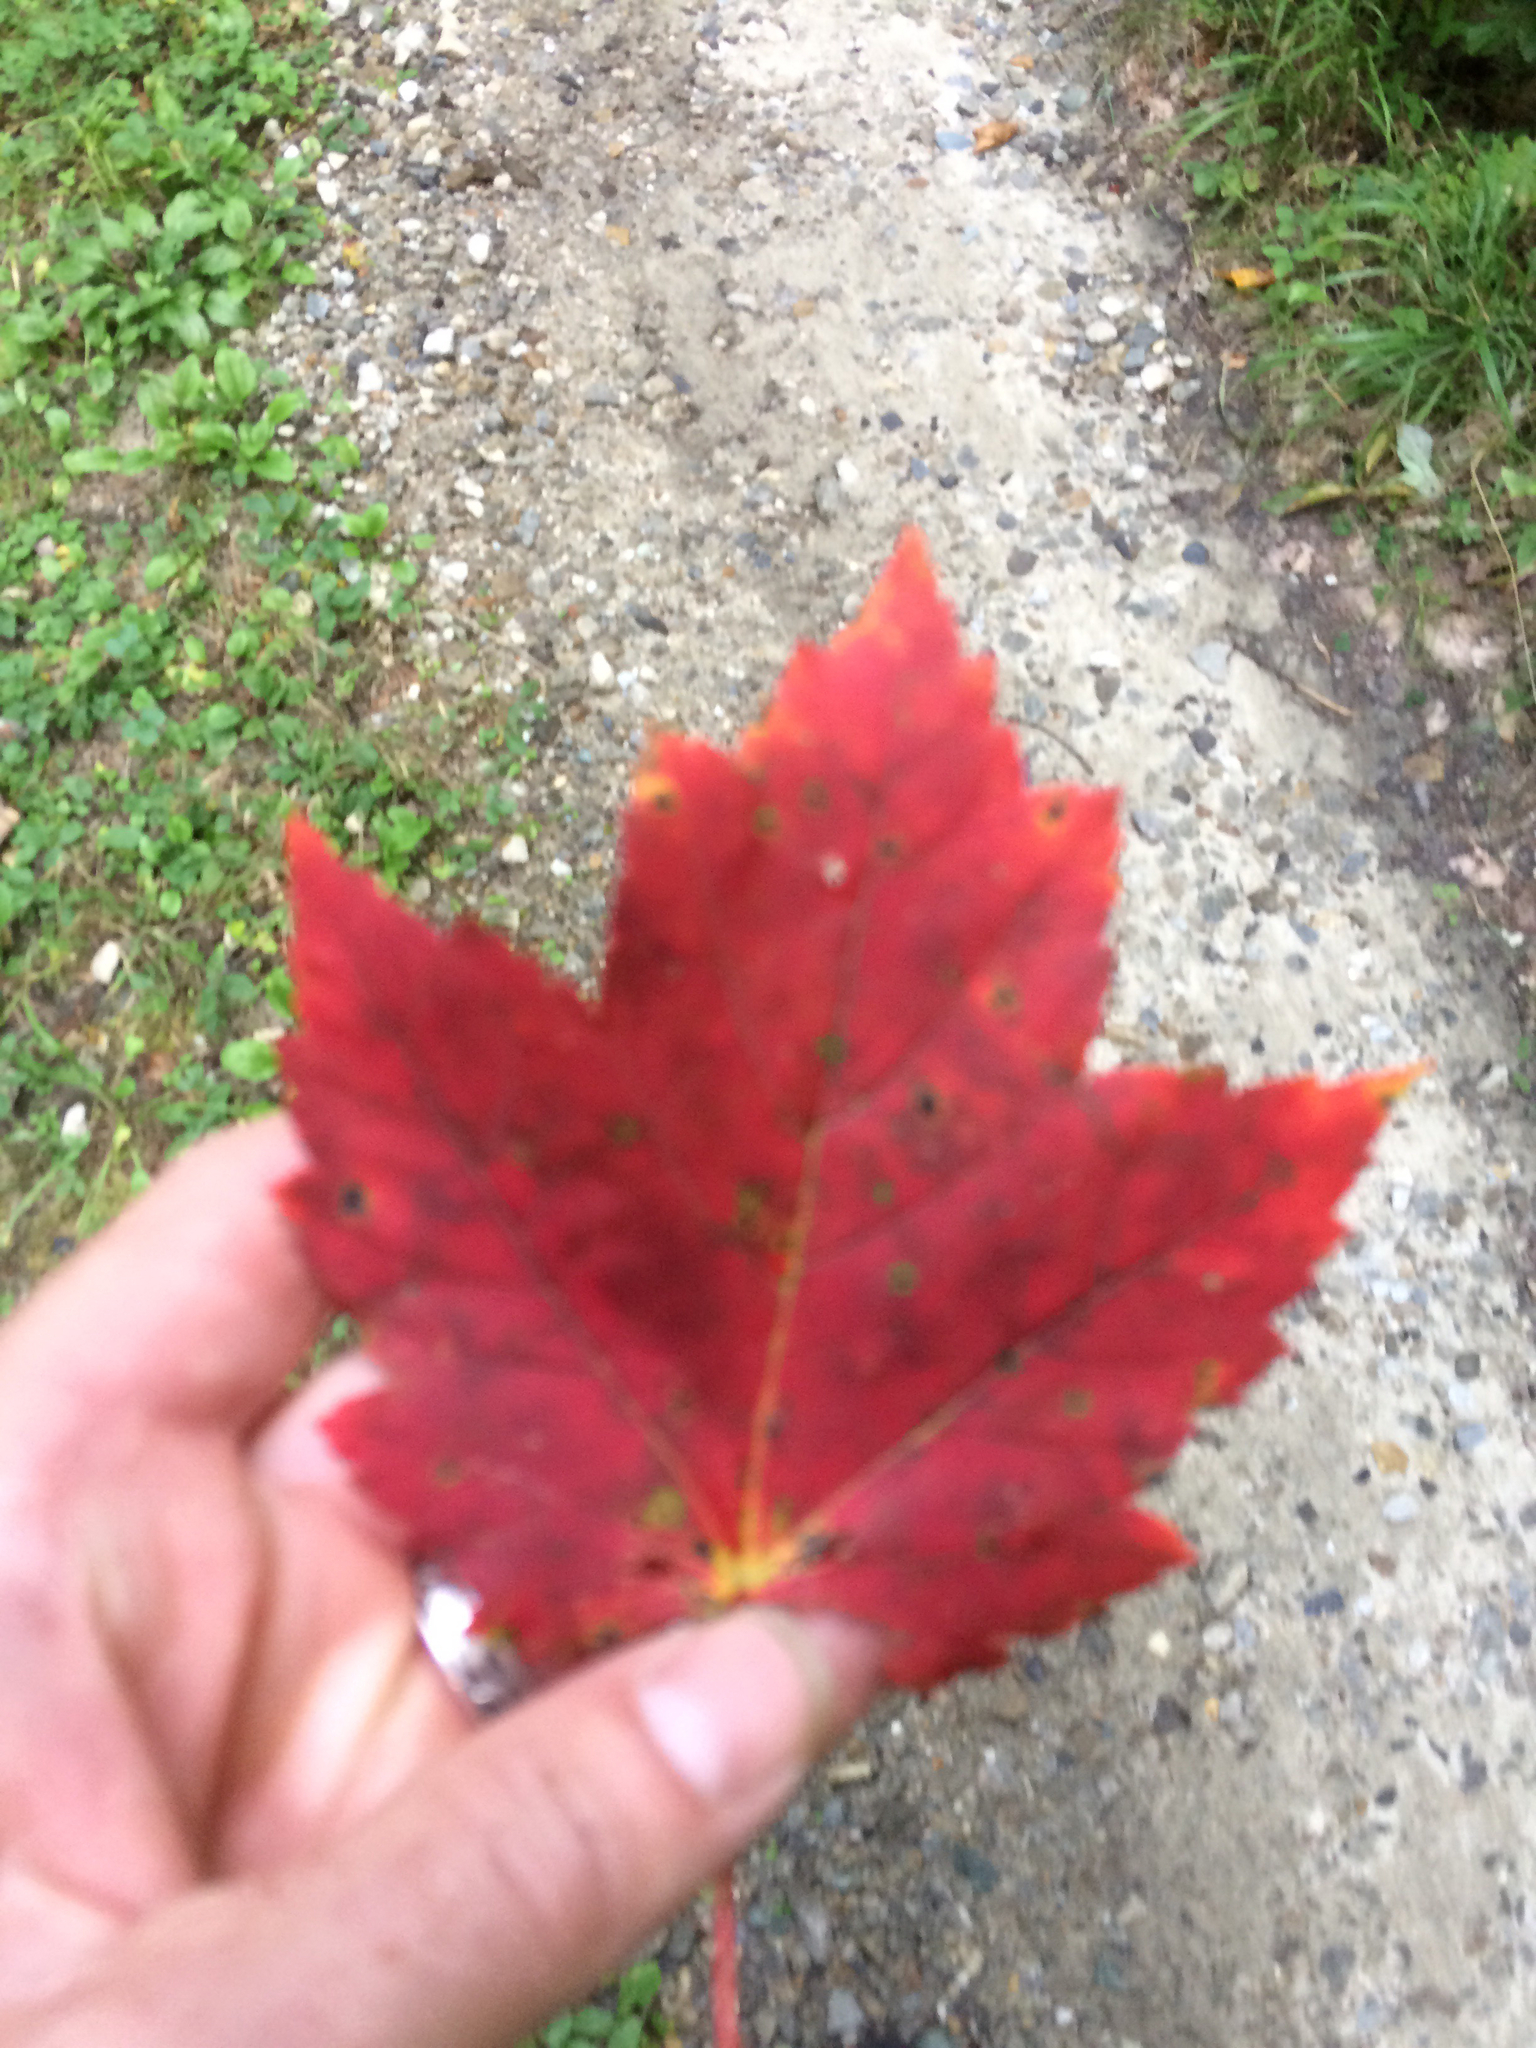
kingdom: Plantae
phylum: Tracheophyta
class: Magnoliopsida
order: Sapindales
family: Sapindaceae
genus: Acer
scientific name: Acer rubrum
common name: Red maple
